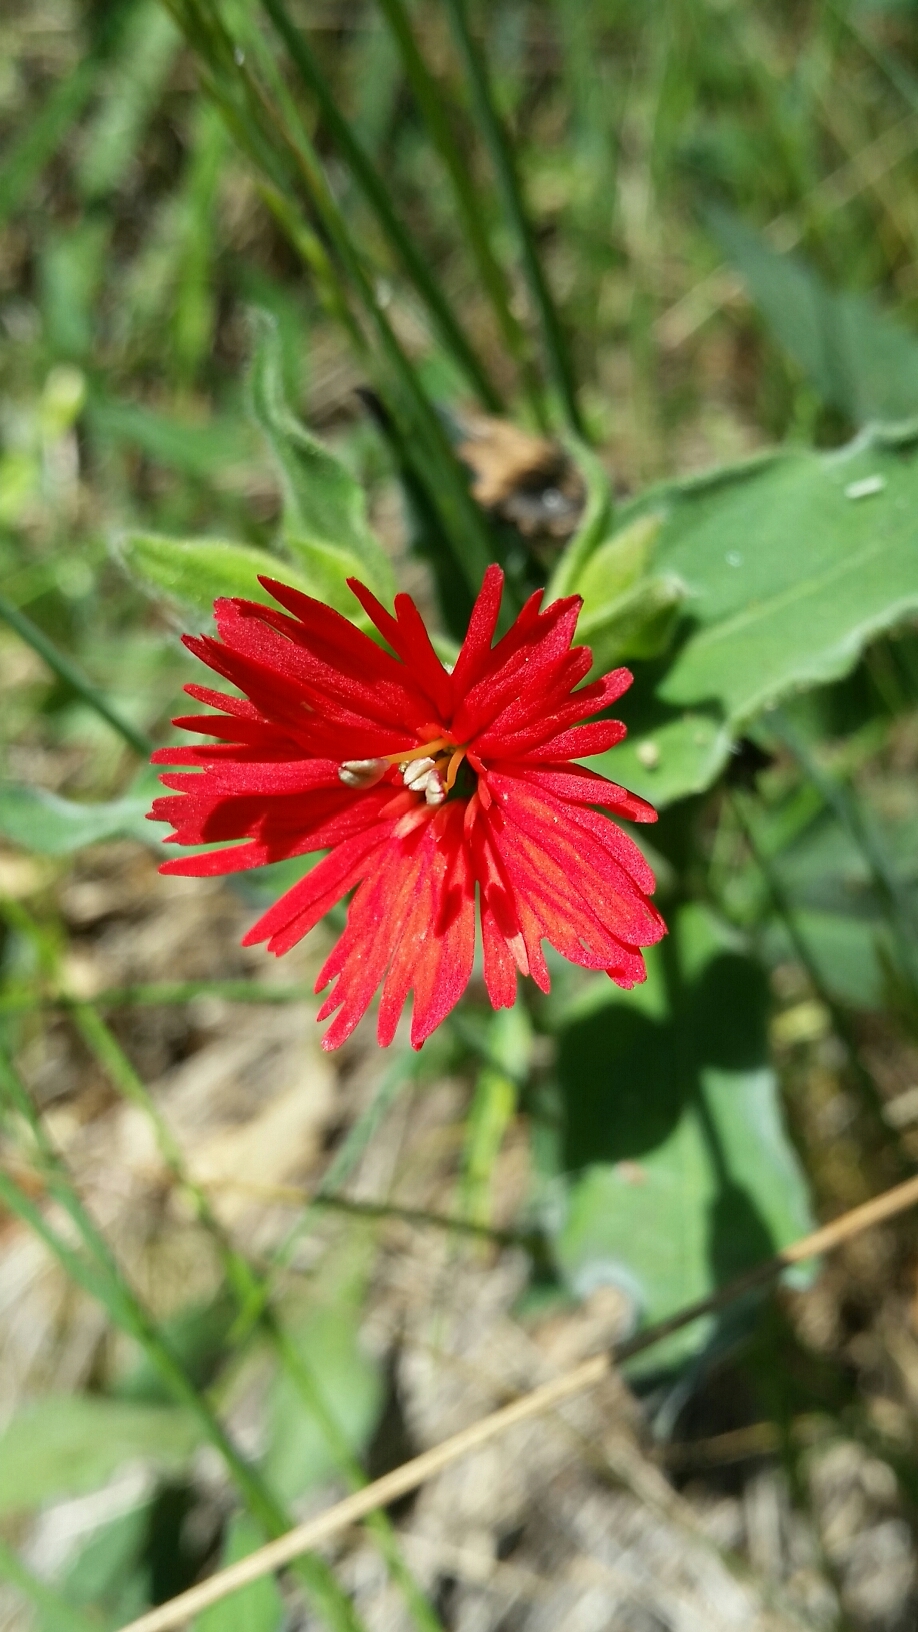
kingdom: Plantae
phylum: Tracheophyta
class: Magnoliopsida
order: Caryophyllales
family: Caryophyllaceae
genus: Silene
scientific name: Silene laciniata
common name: Indian-pink
